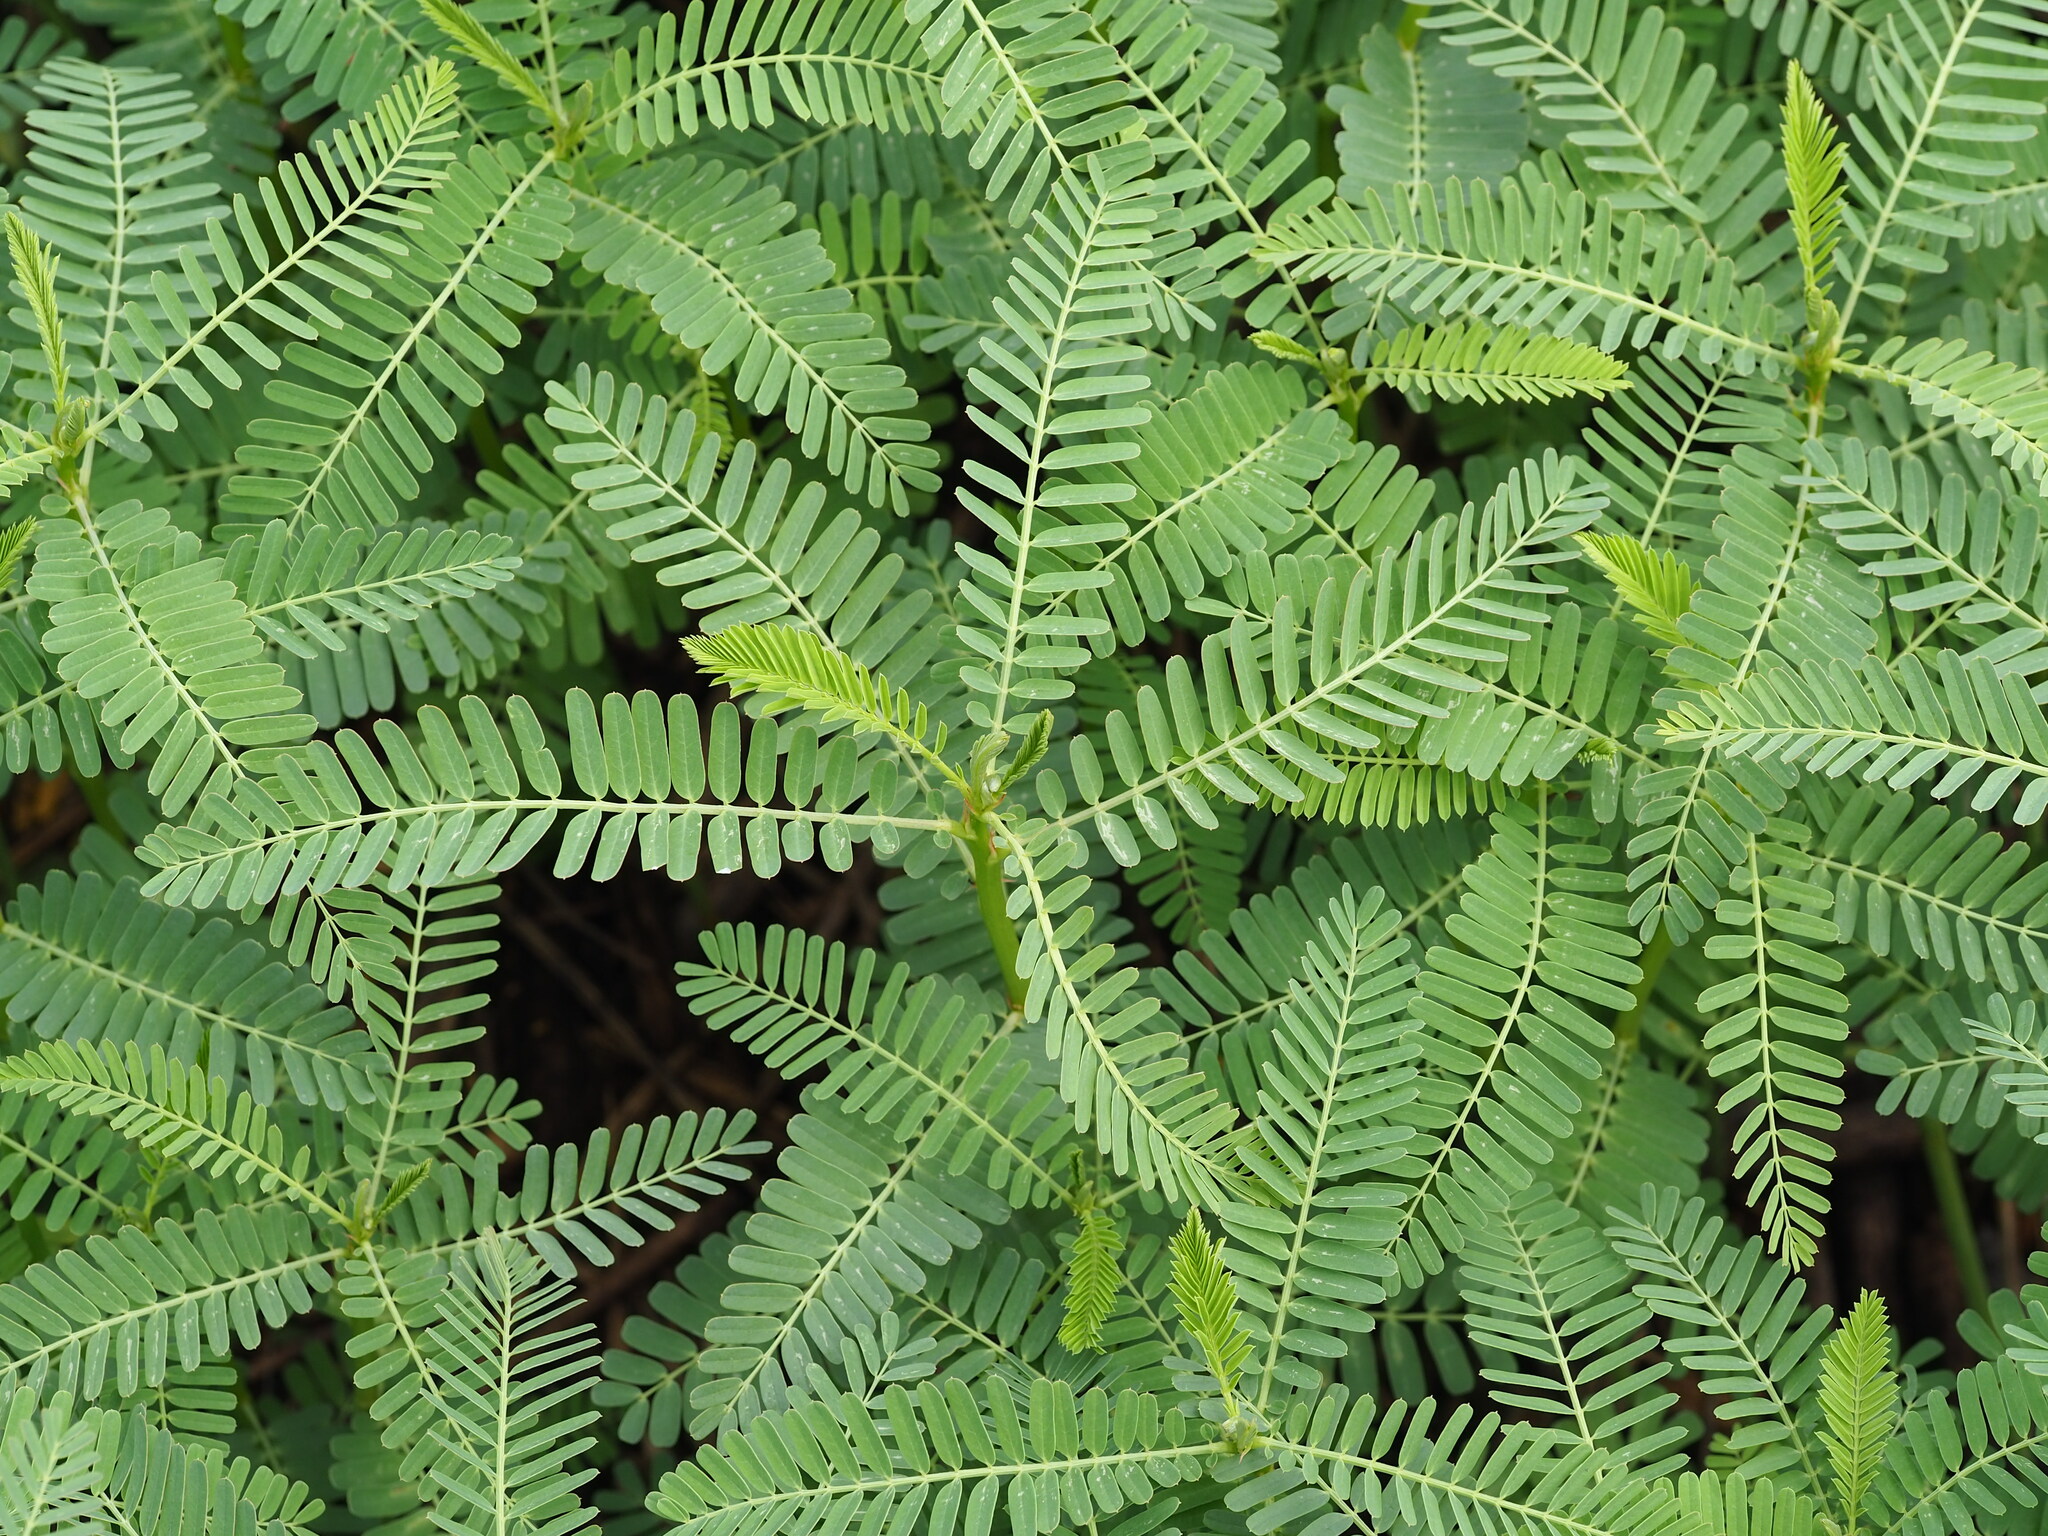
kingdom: Plantae
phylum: Tracheophyta
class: Magnoliopsida
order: Fabales
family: Fabaceae
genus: Sesbania
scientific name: Sesbania cannabina
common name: Canicha
